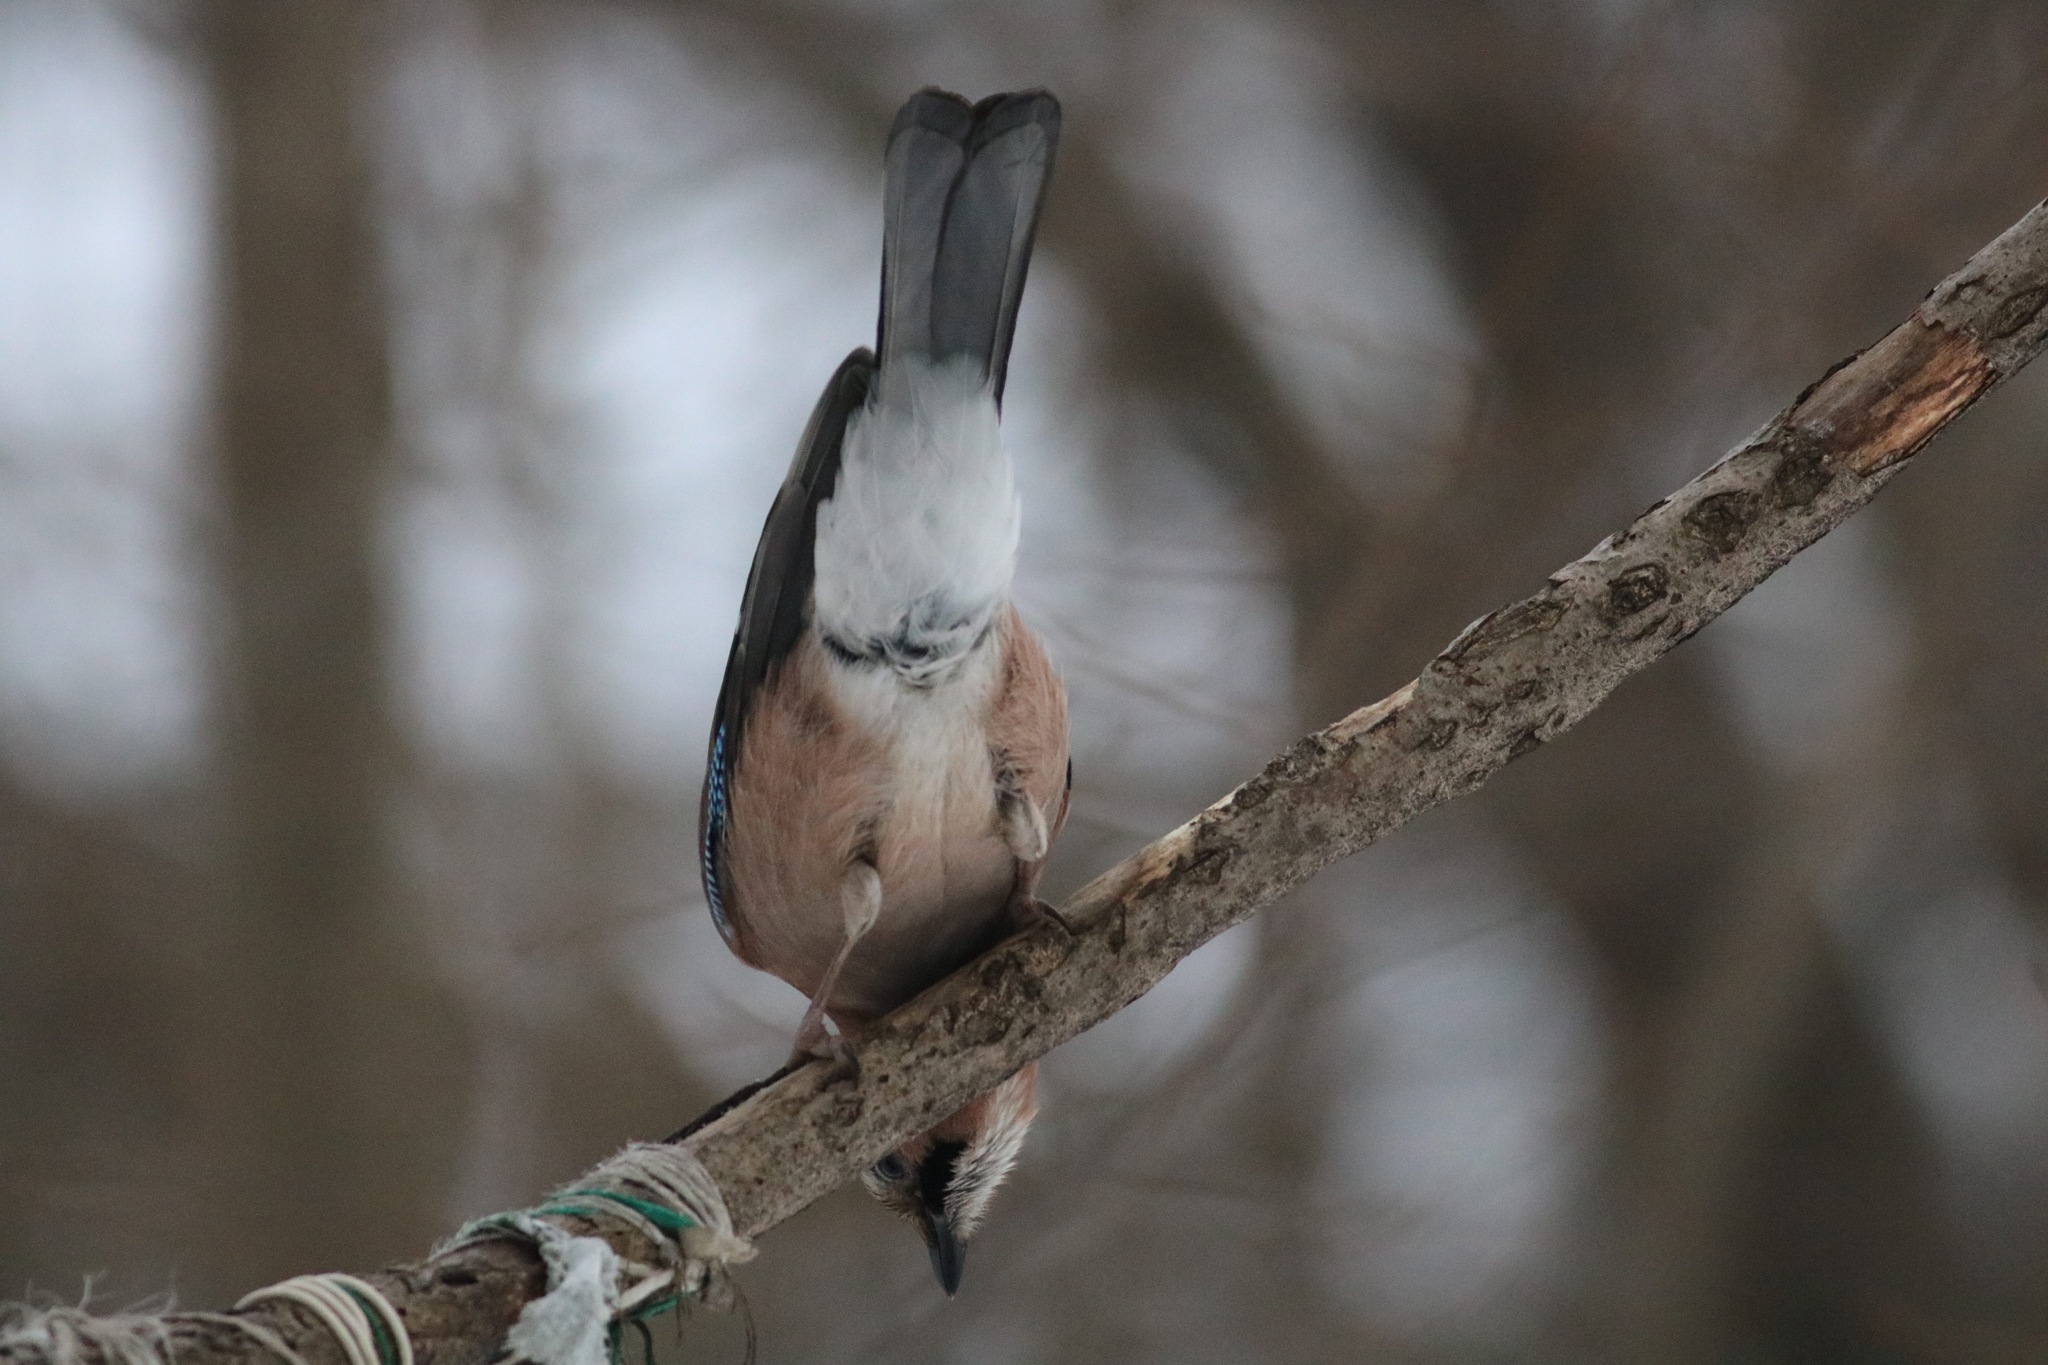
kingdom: Animalia
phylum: Chordata
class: Aves
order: Passeriformes
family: Corvidae
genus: Garrulus
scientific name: Garrulus glandarius
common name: Eurasian jay
